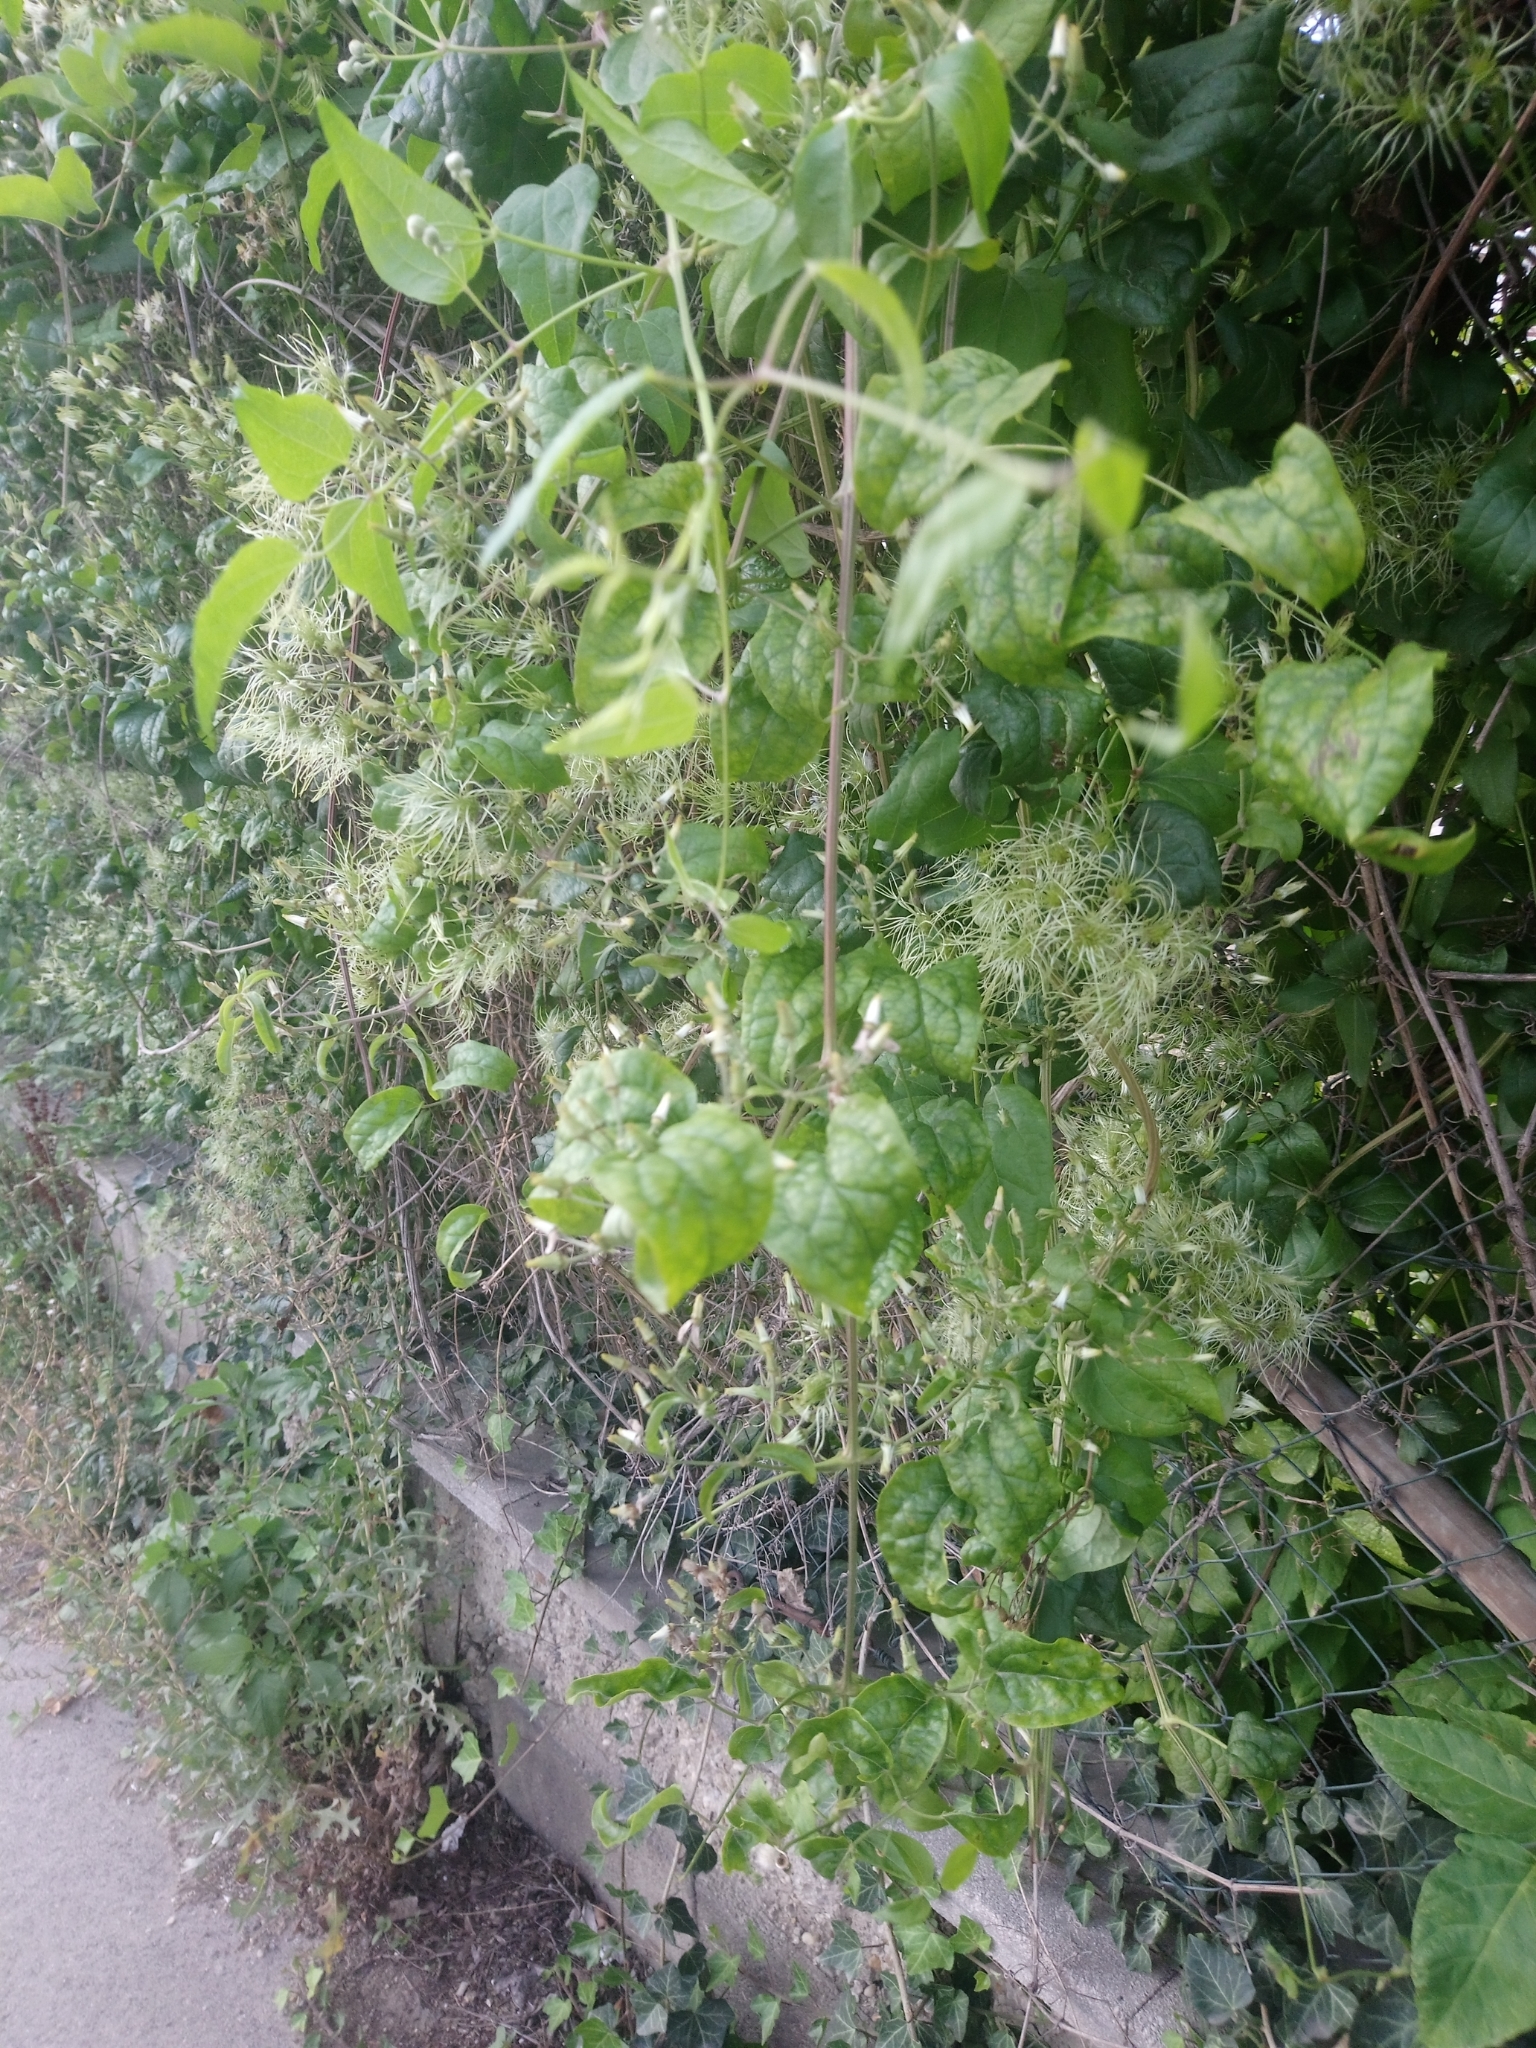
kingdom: Plantae
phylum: Tracheophyta
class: Magnoliopsida
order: Ranunculales
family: Ranunculaceae
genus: Clematis
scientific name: Clematis vitalba
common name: Evergreen clematis
